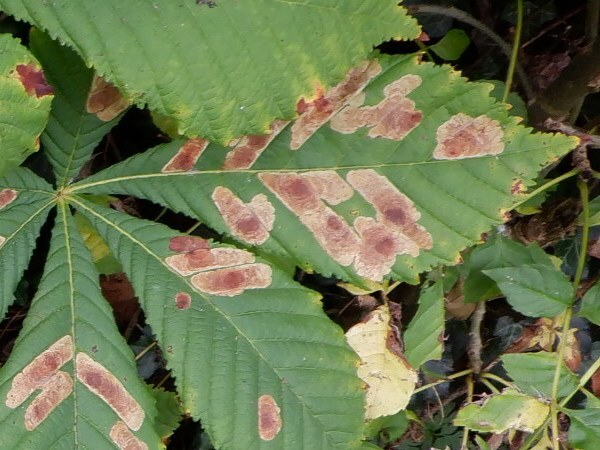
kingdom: Animalia
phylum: Arthropoda
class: Insecta
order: Lepidoptera
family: Gracillariidae
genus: Cameraria
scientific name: Cameraria ohridella
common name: Horse-chestnut leaf-miner
